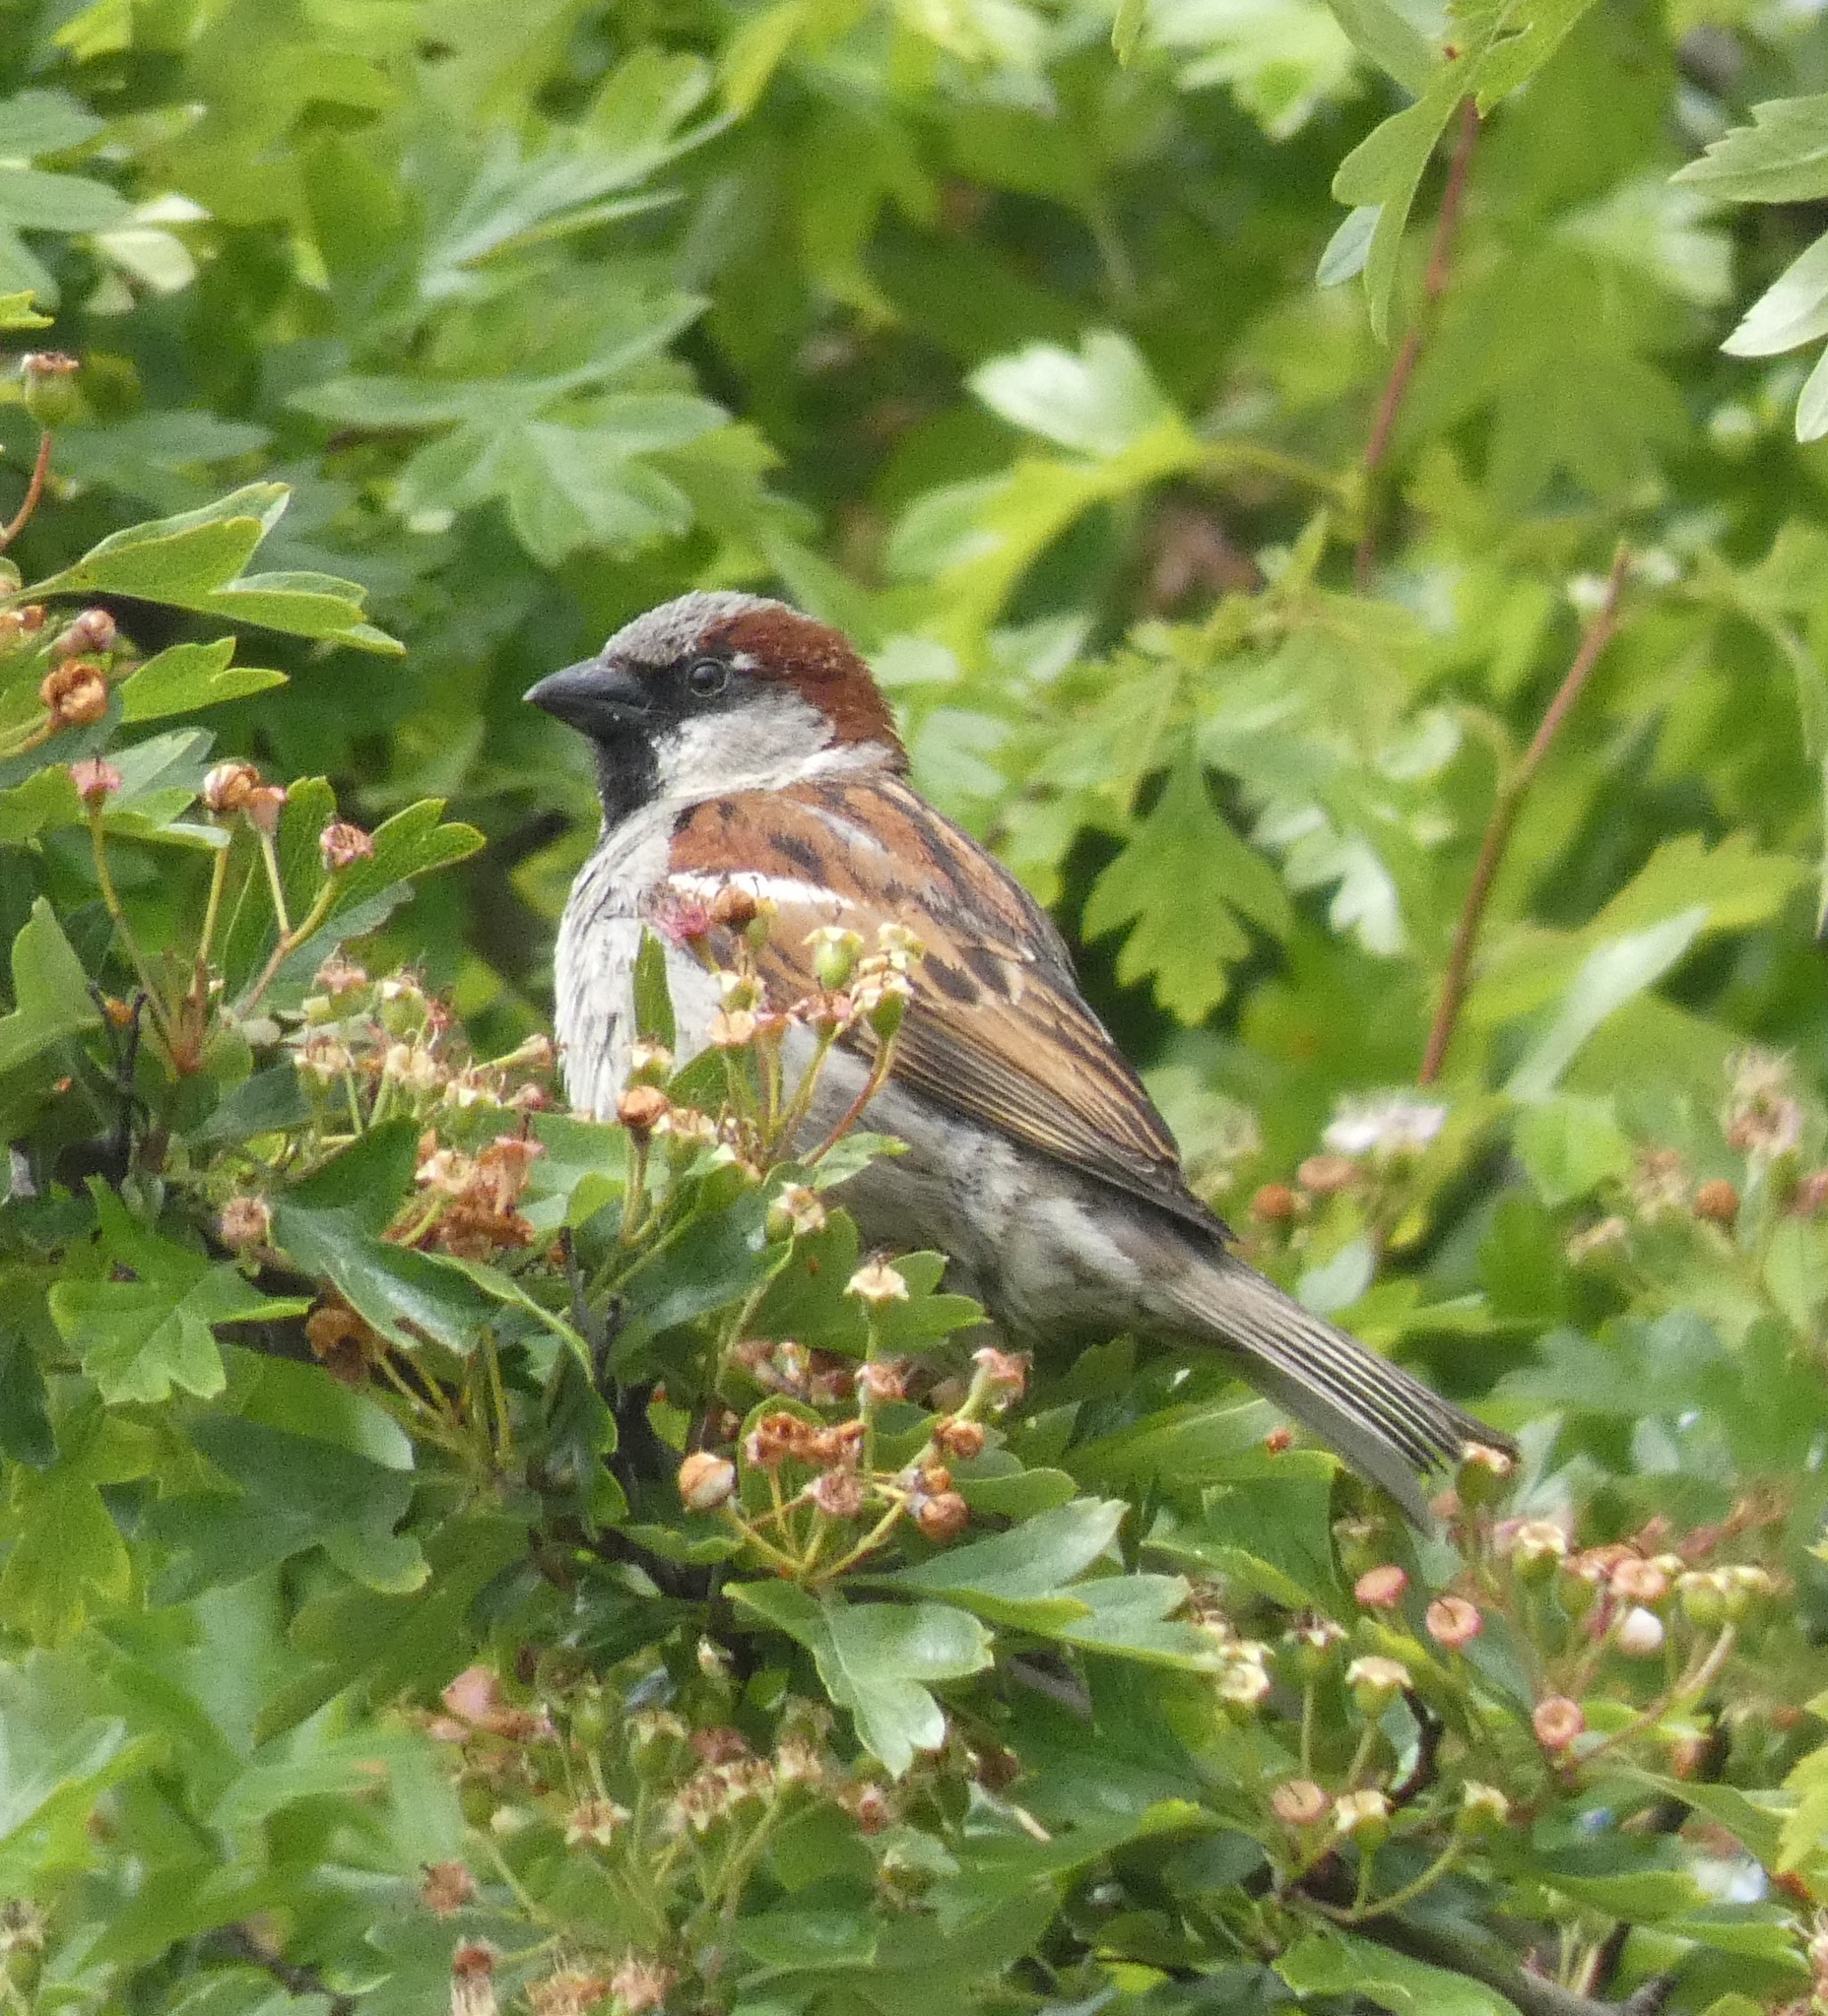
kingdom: Animalia
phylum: Chordata
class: Aves
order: Passeriformes
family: Passeridae
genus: Passer
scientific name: Passer domesticus
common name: House sparrow
